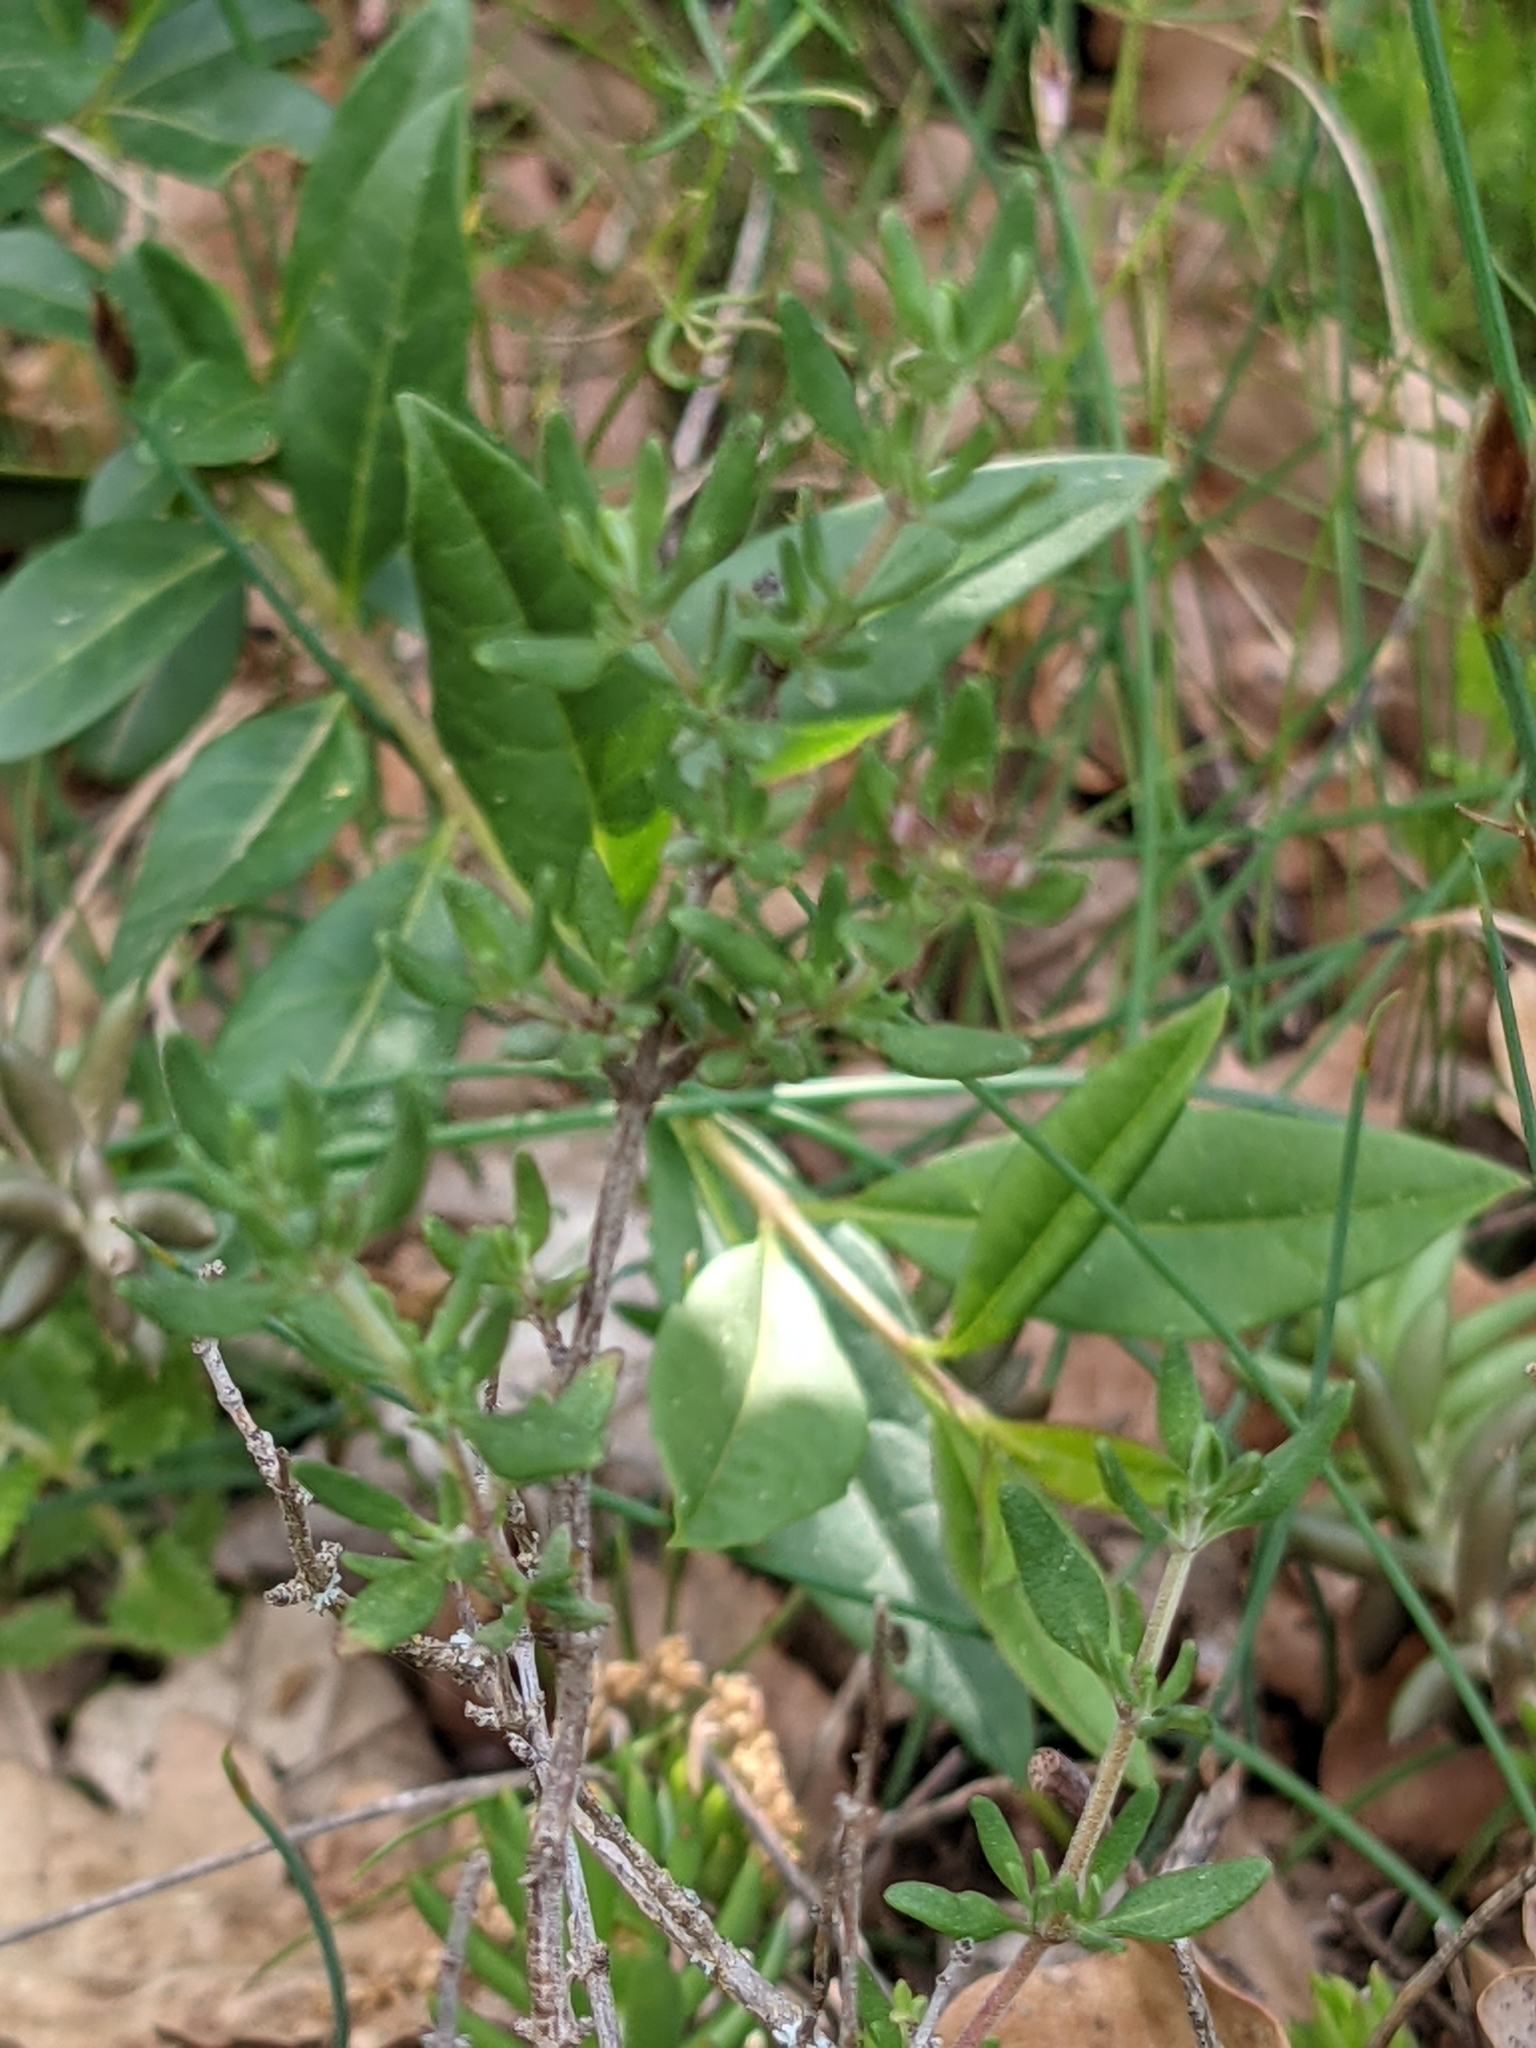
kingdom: Plantae
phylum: Tracheophyta
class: Magnoliopsida
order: Buxales
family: Buxaceae
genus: Buxus
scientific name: Buxus sempervirens
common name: Box
